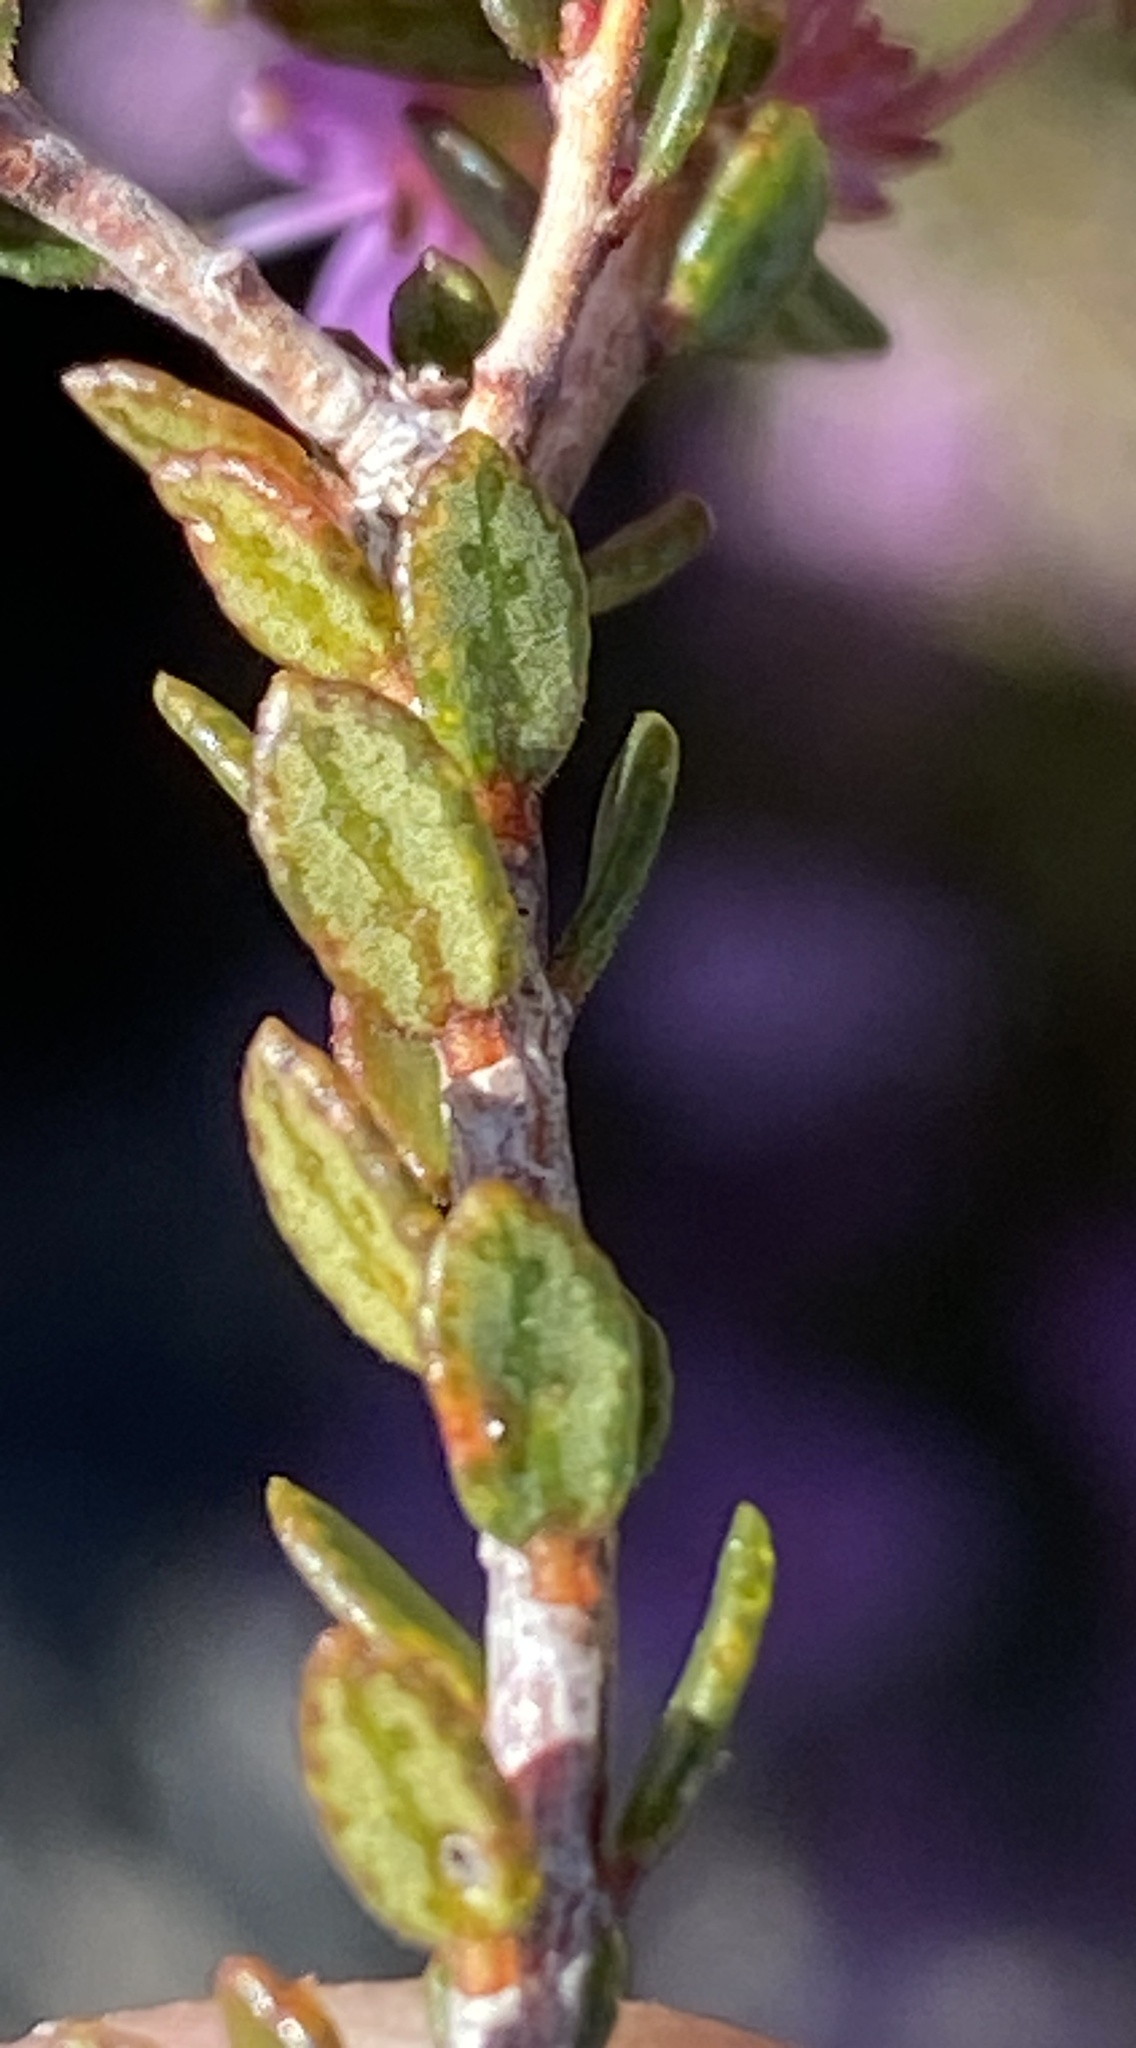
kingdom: Plantae
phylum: Tracheophyta
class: Magnoliopsida
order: Sapindales
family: Rutaceae
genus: Agathosma
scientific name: Agathosma marlothii
